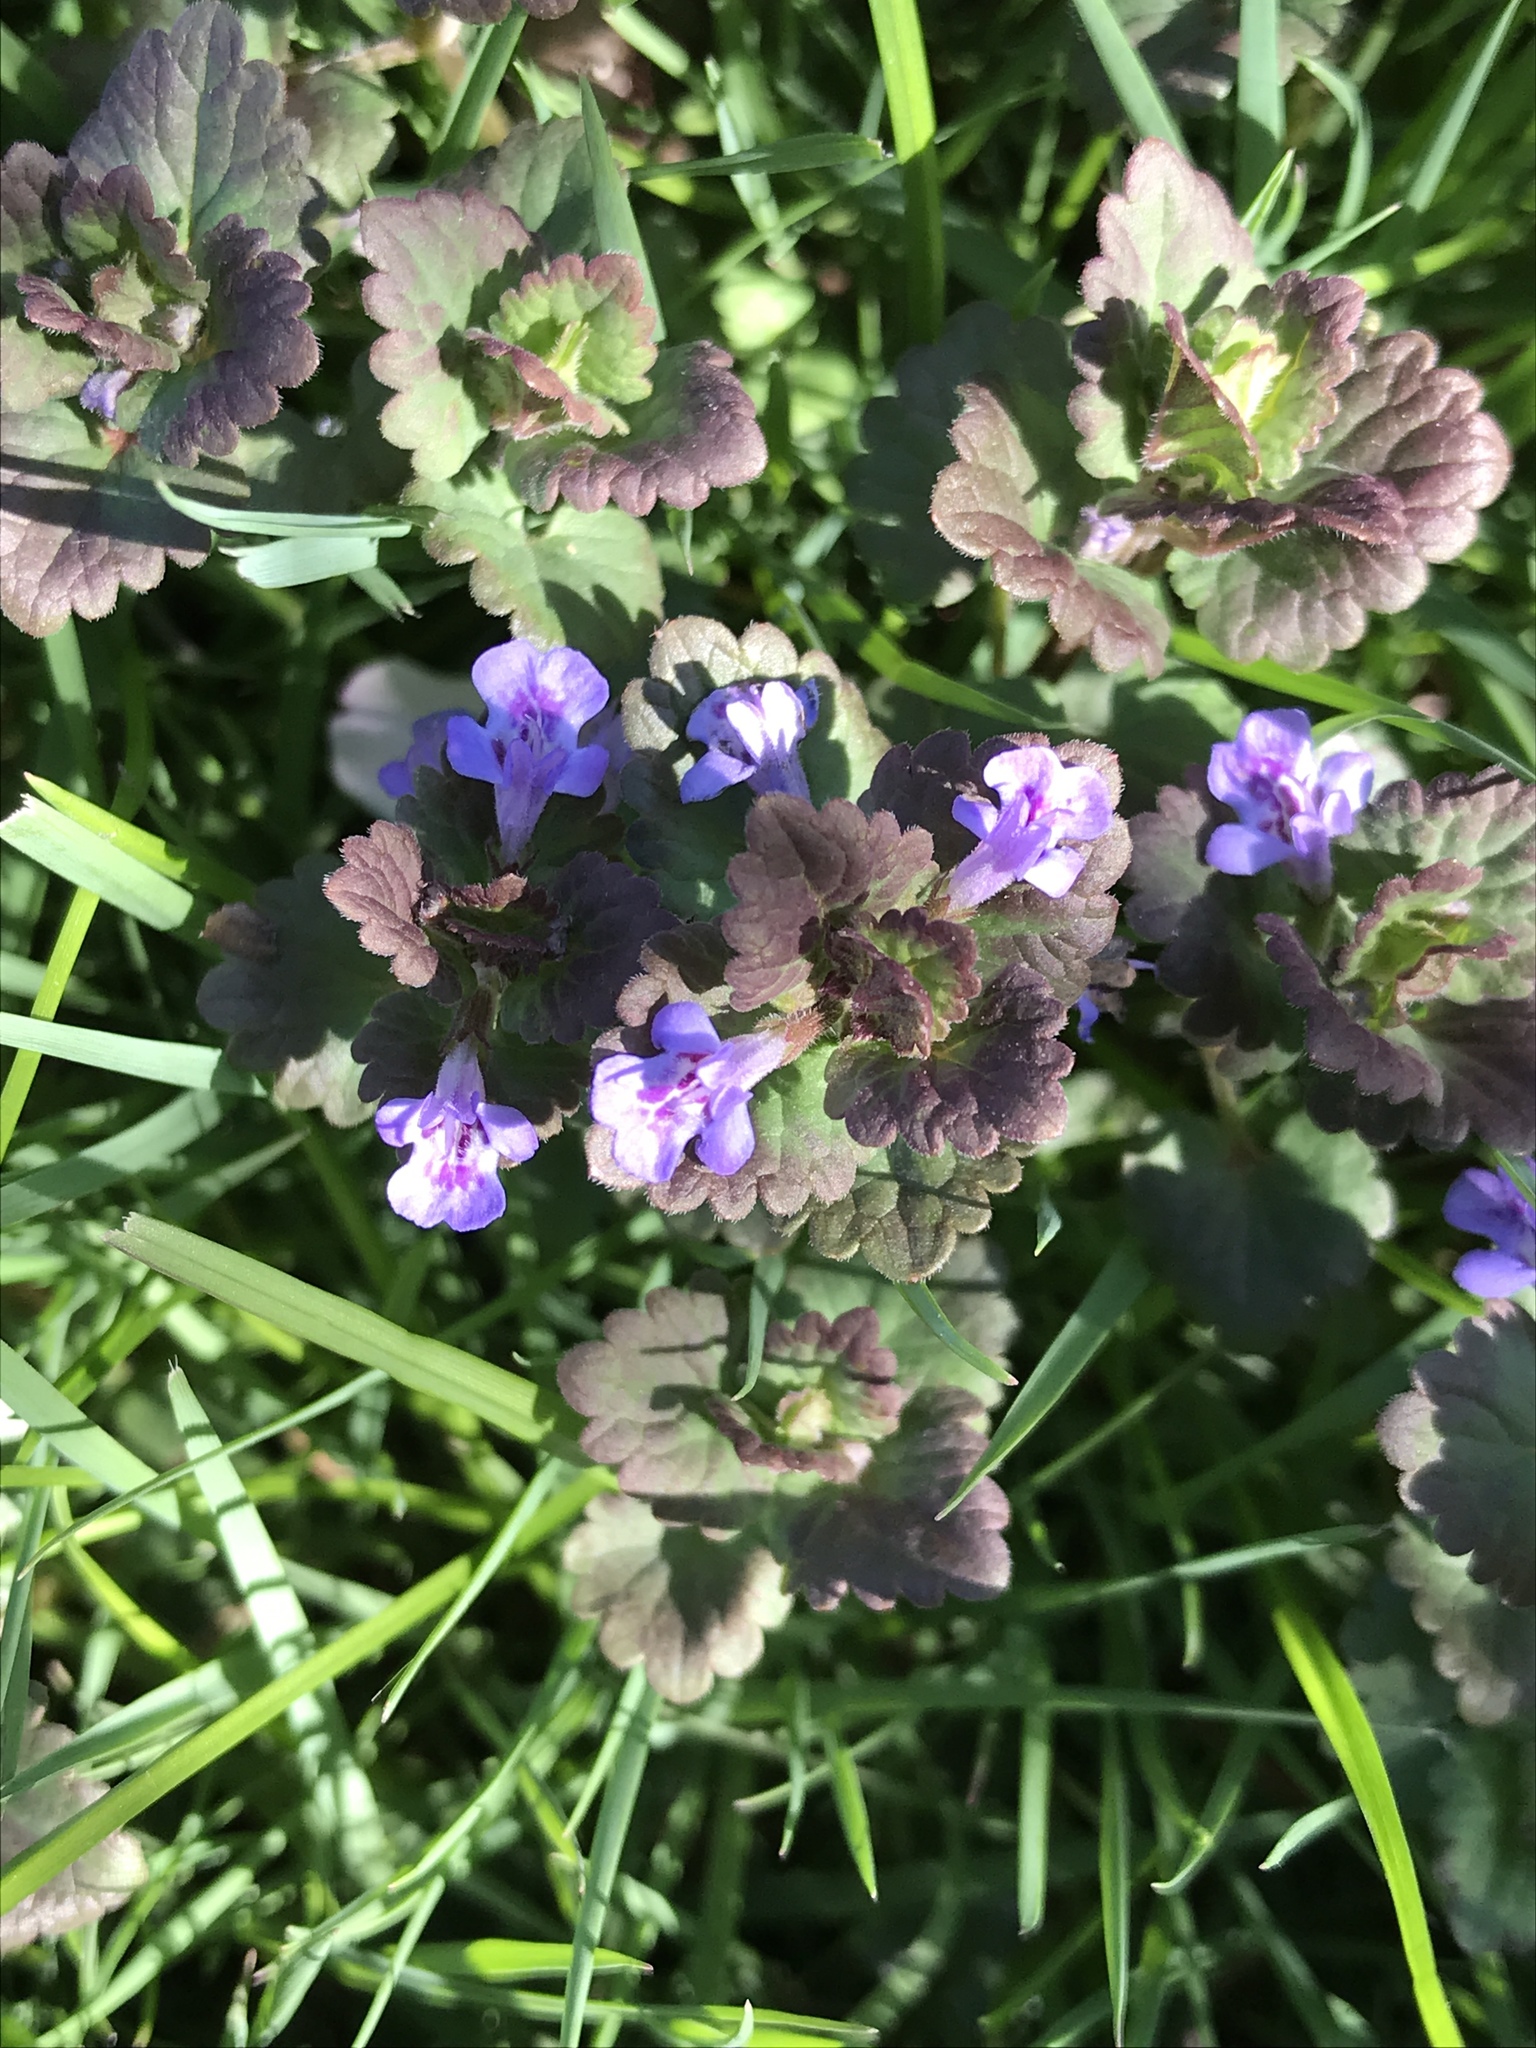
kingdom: Plantae
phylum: Tracheophyta
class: Magnoliopsida
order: Lamiales
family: Lamiaceae
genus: Glechoma
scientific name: Glechoma hederacea
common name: Ground ivy
